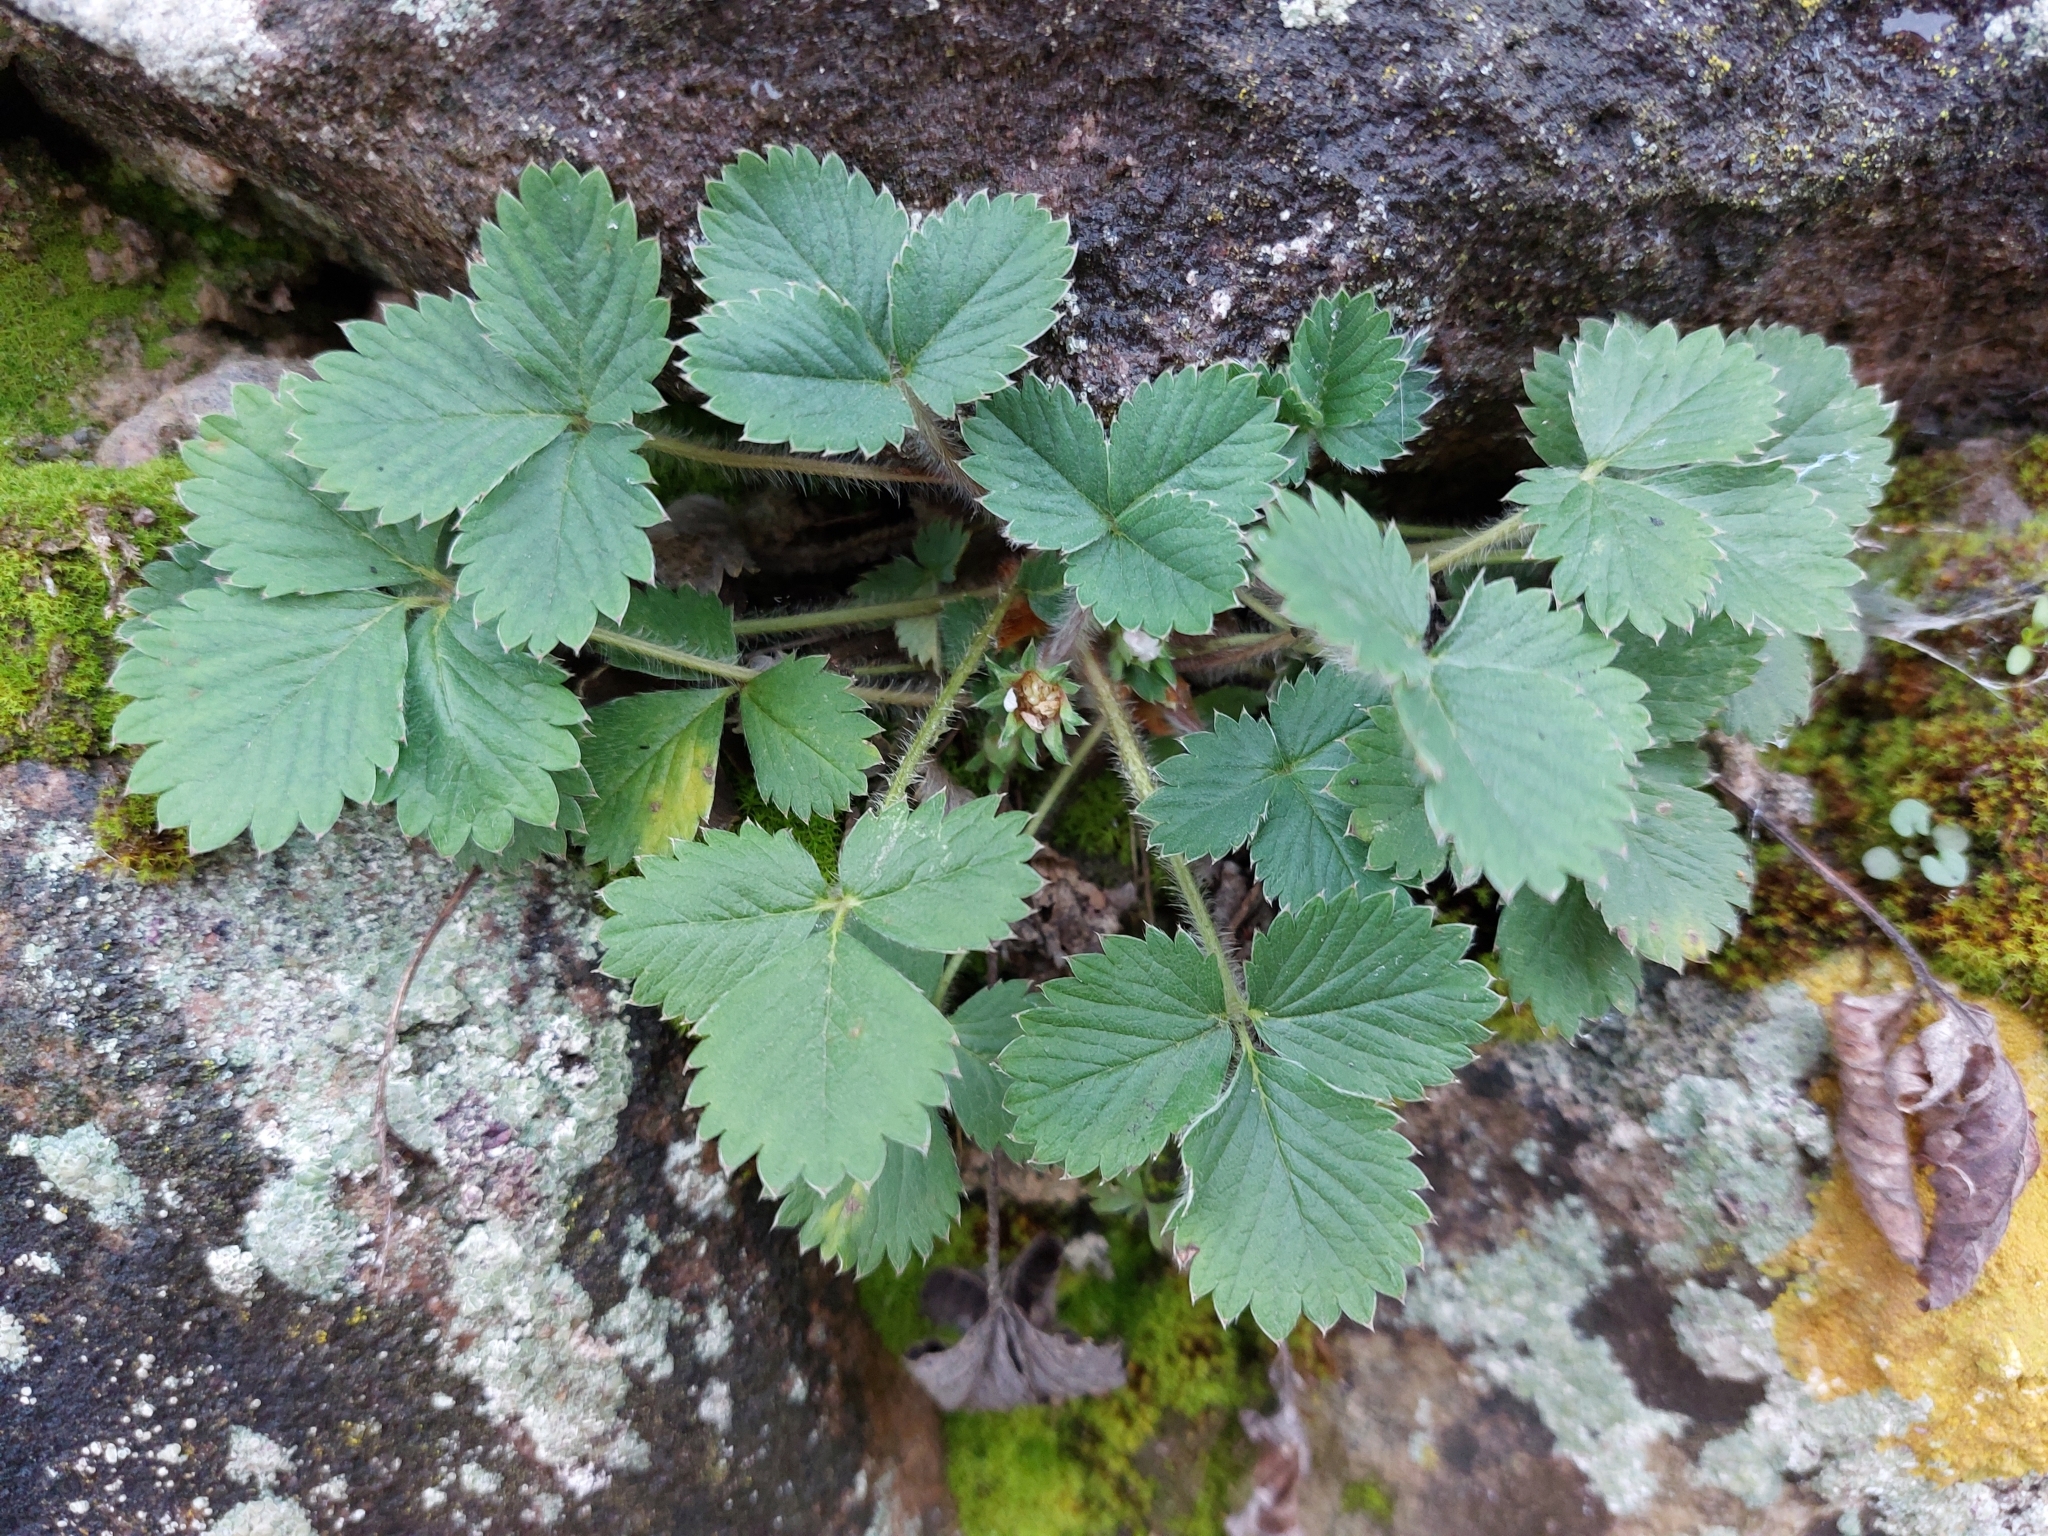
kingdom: Plantae
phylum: Tracheophyta
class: Magnoliopsida
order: Rosales
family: Rosaceae
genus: Potentilla
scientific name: Potentilla micrantha
